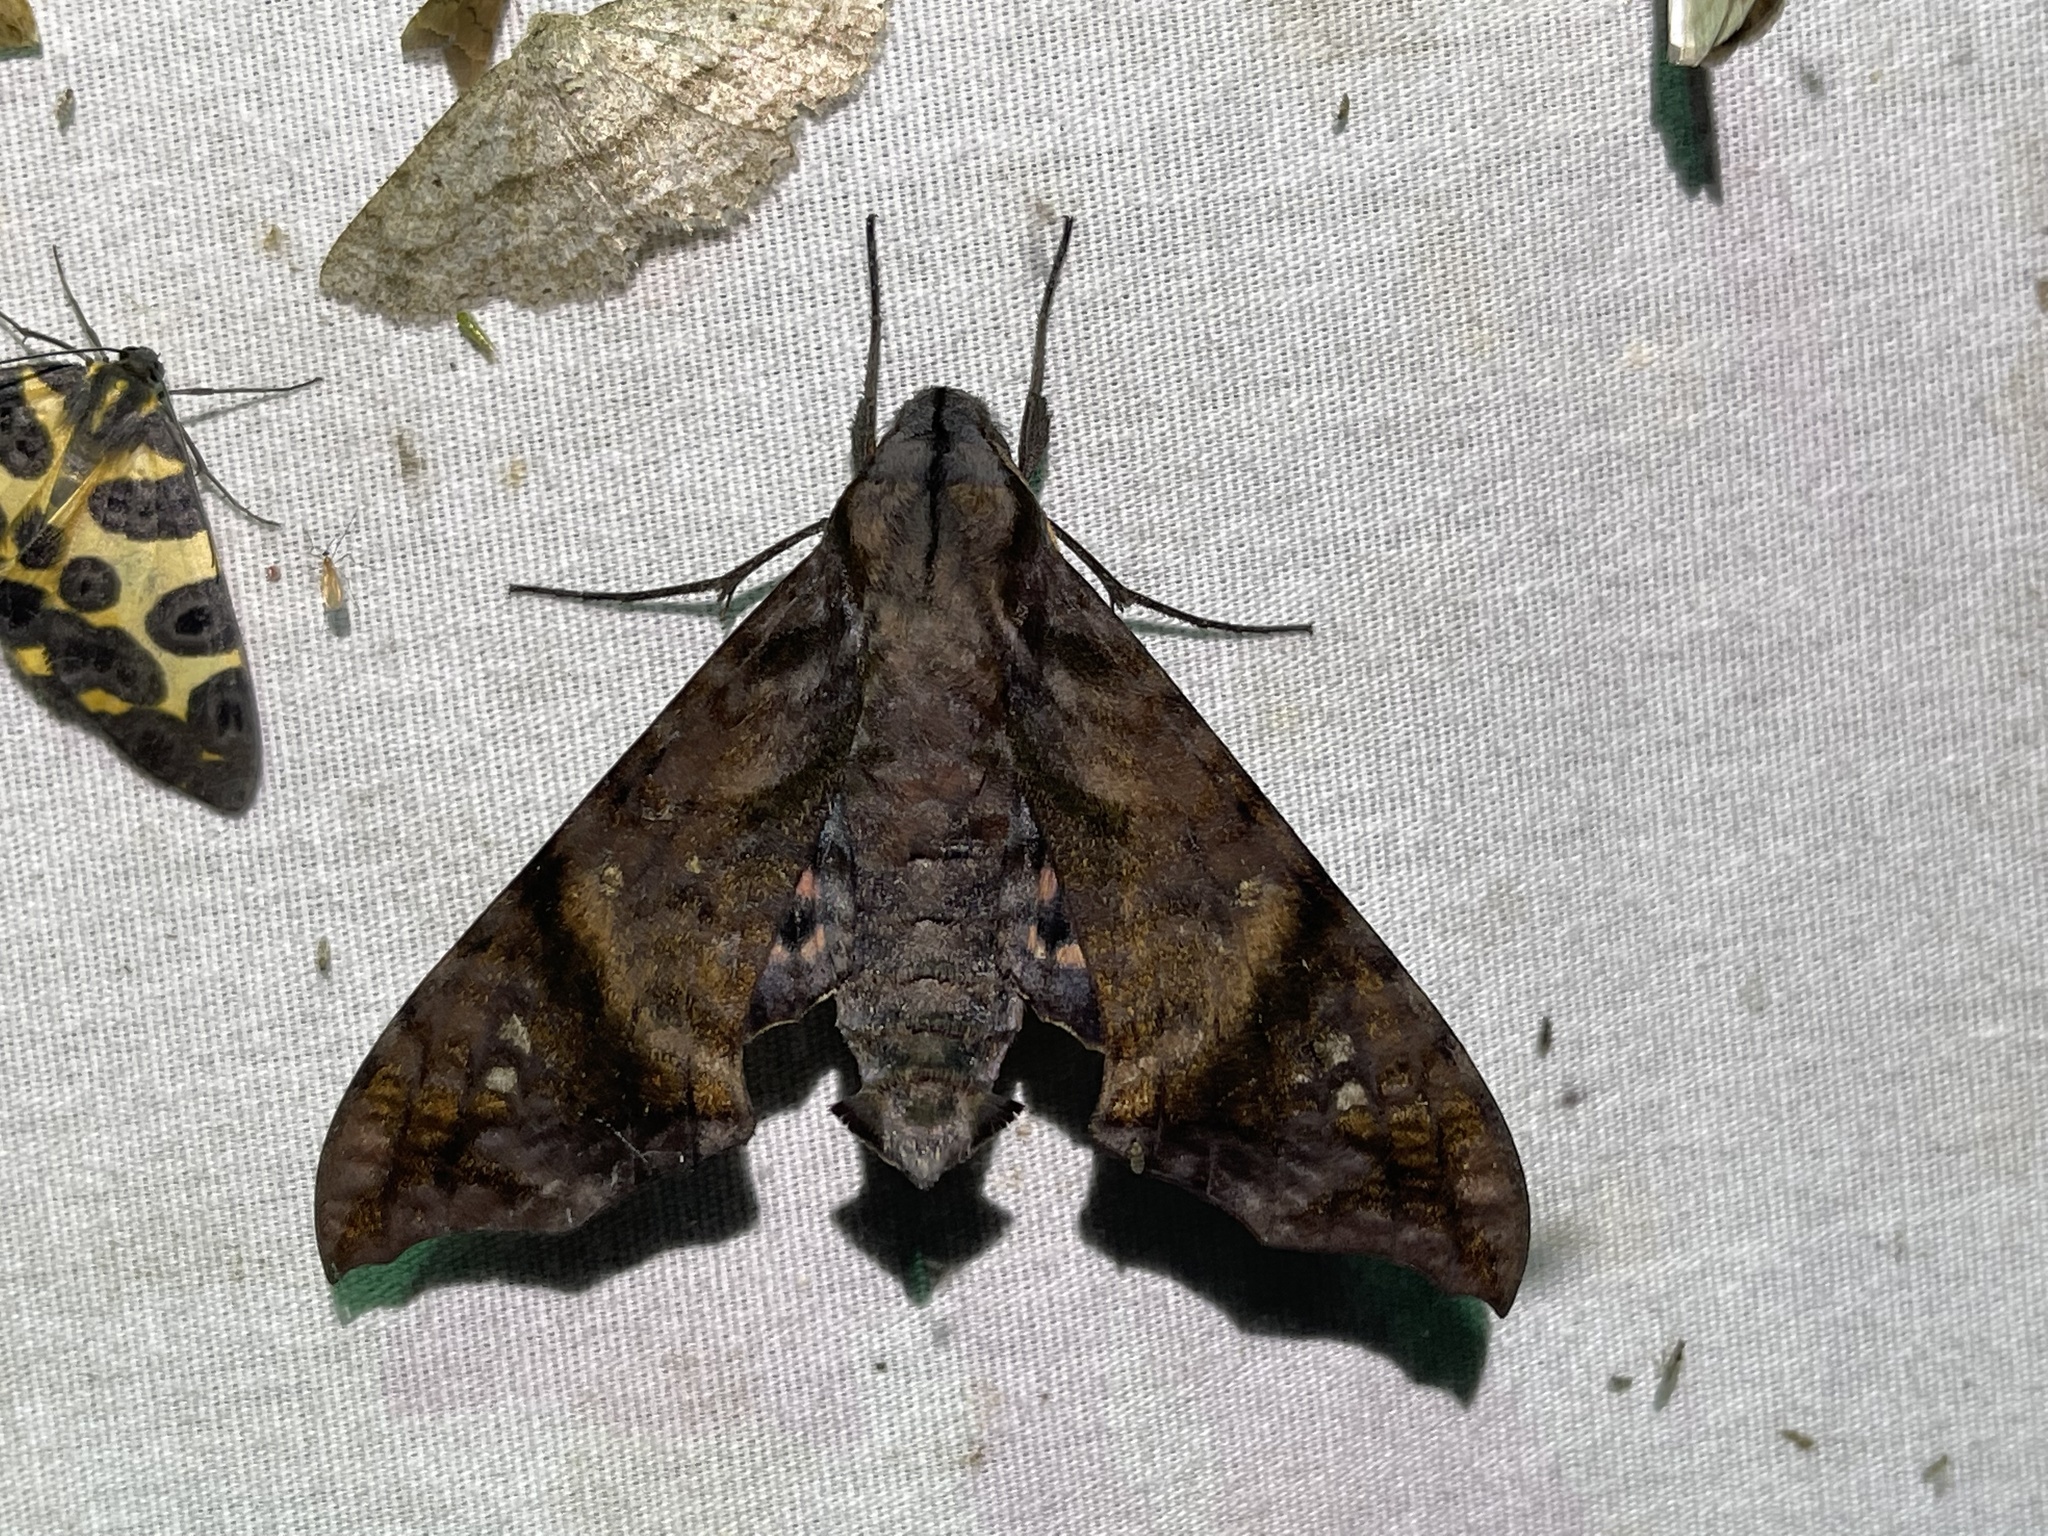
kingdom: Animalia
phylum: Arthropoda
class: Insecta
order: Lepidoptera
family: Sphingidae
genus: Nyceryx
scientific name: Nyceryx hyposticta
